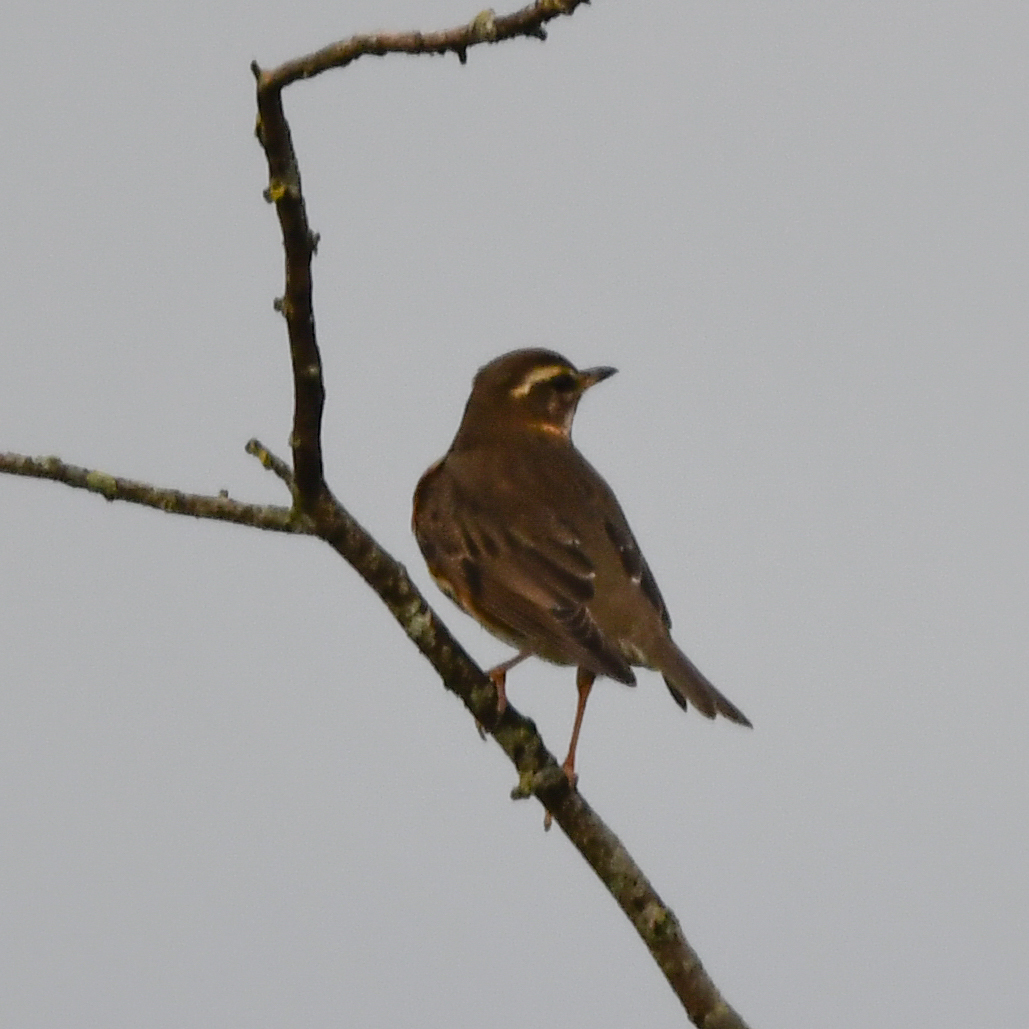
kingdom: Animalia
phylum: Chordata
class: Aves
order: Passeriformes
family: Turdidae
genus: Turdus
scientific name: Turdus iliacus
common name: Redwing
